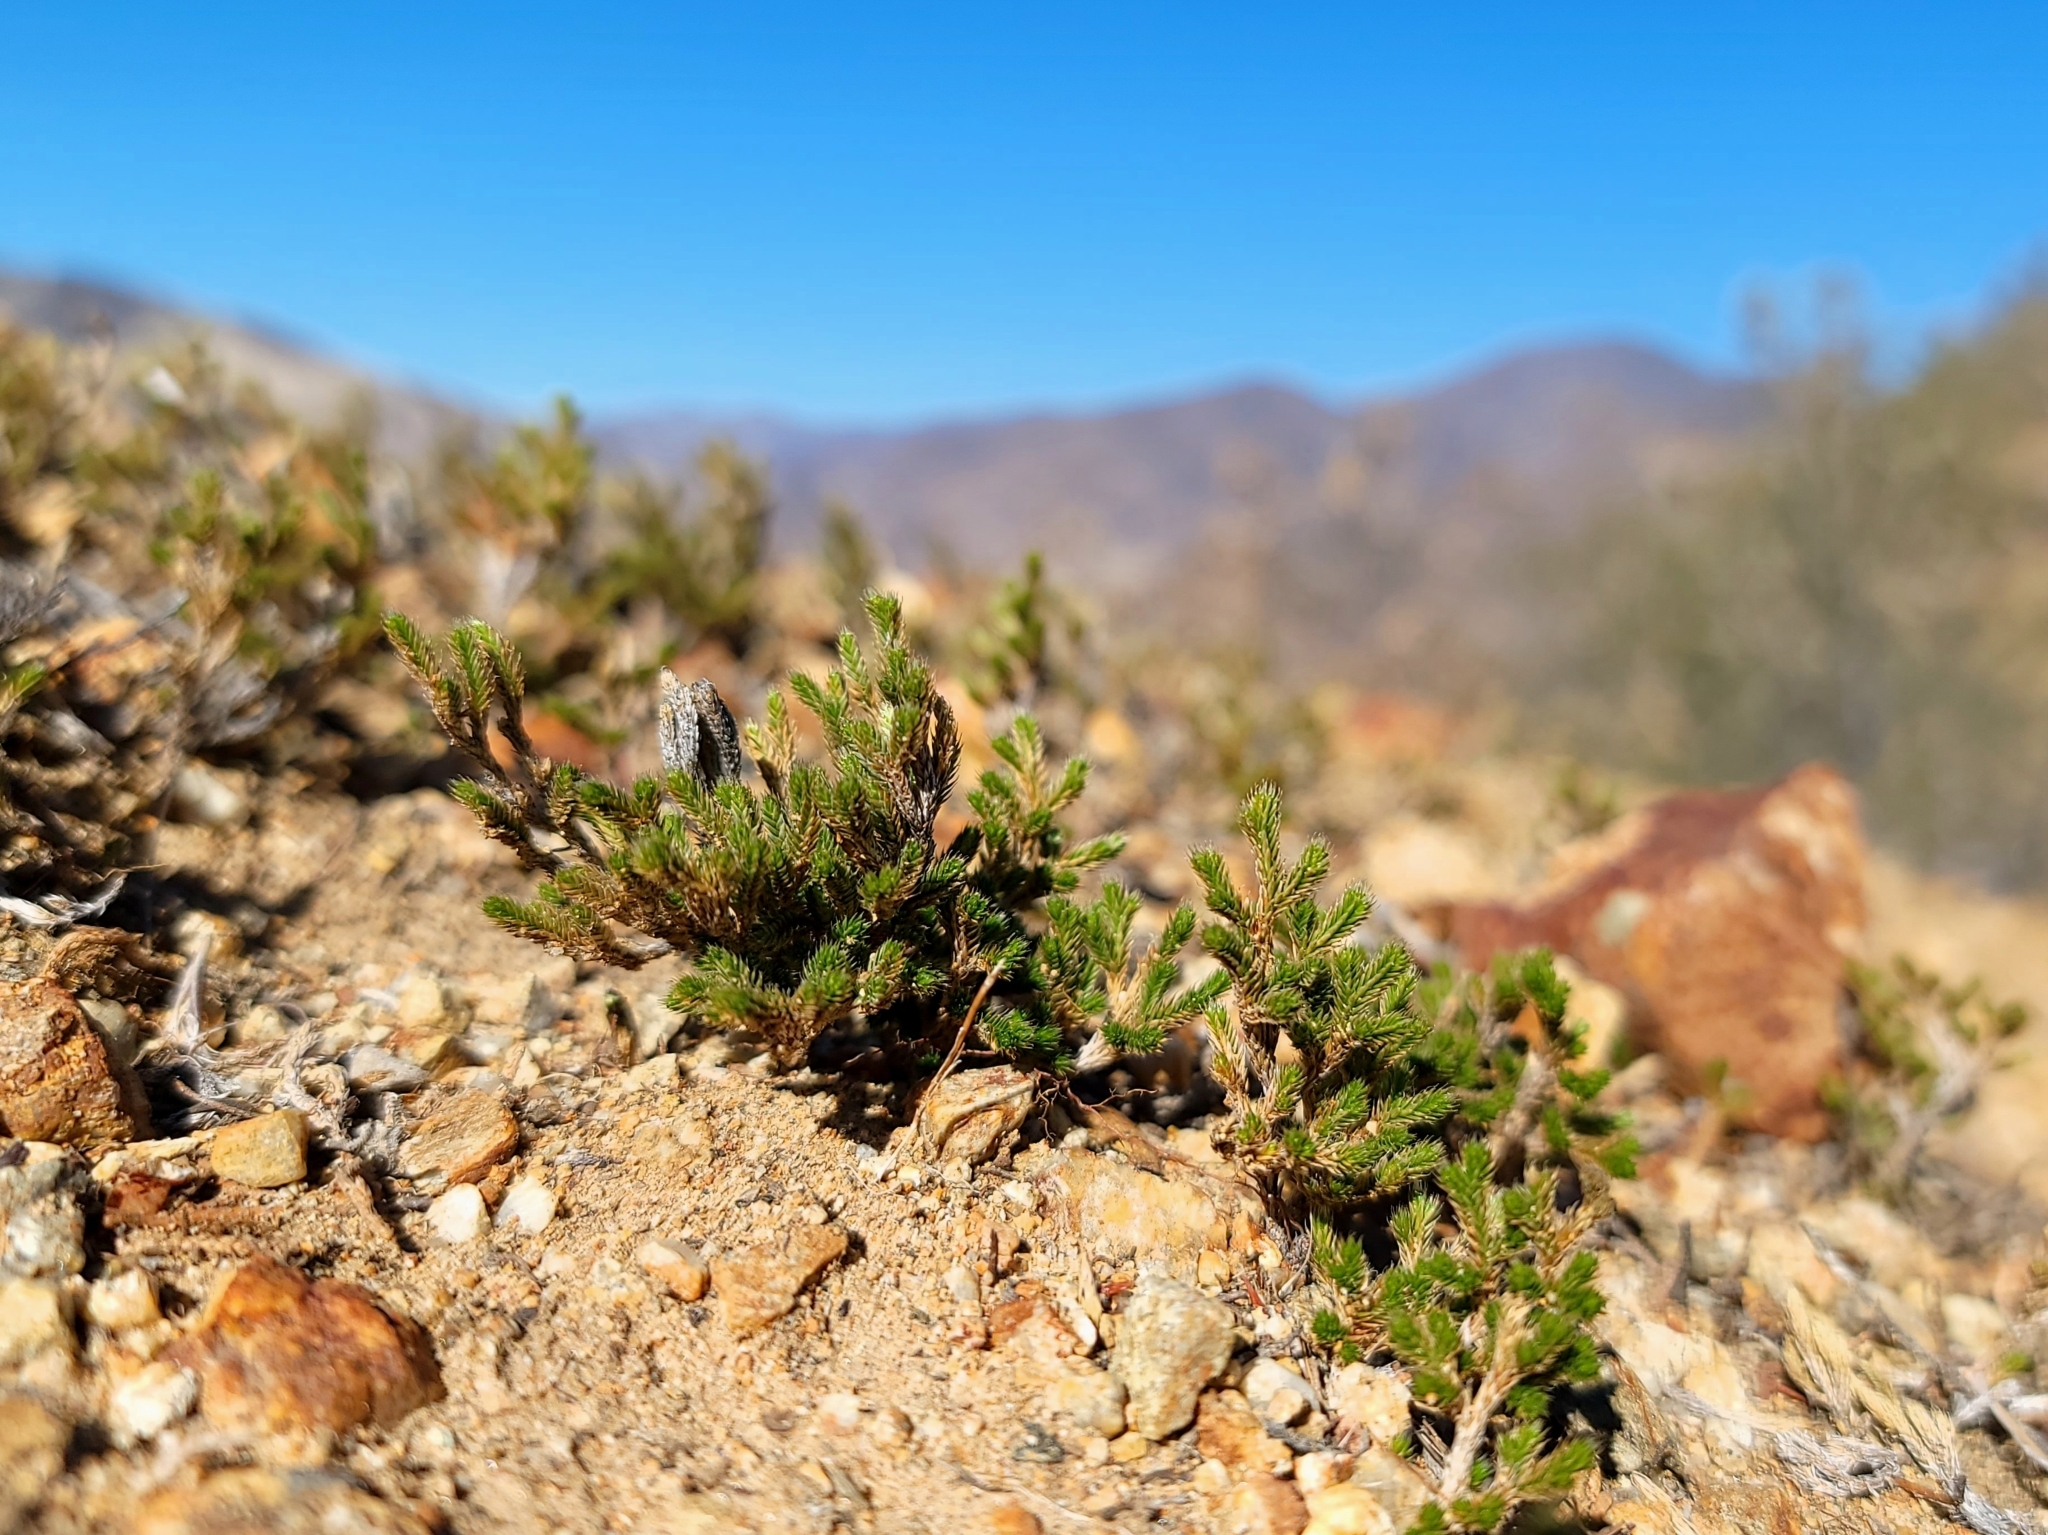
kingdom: Plantae
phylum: Tracheophyta
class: Lycopodiopsida
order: Selaginellales
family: Selaginellaceae
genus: Selaginella
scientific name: Selaginella bigelovii
